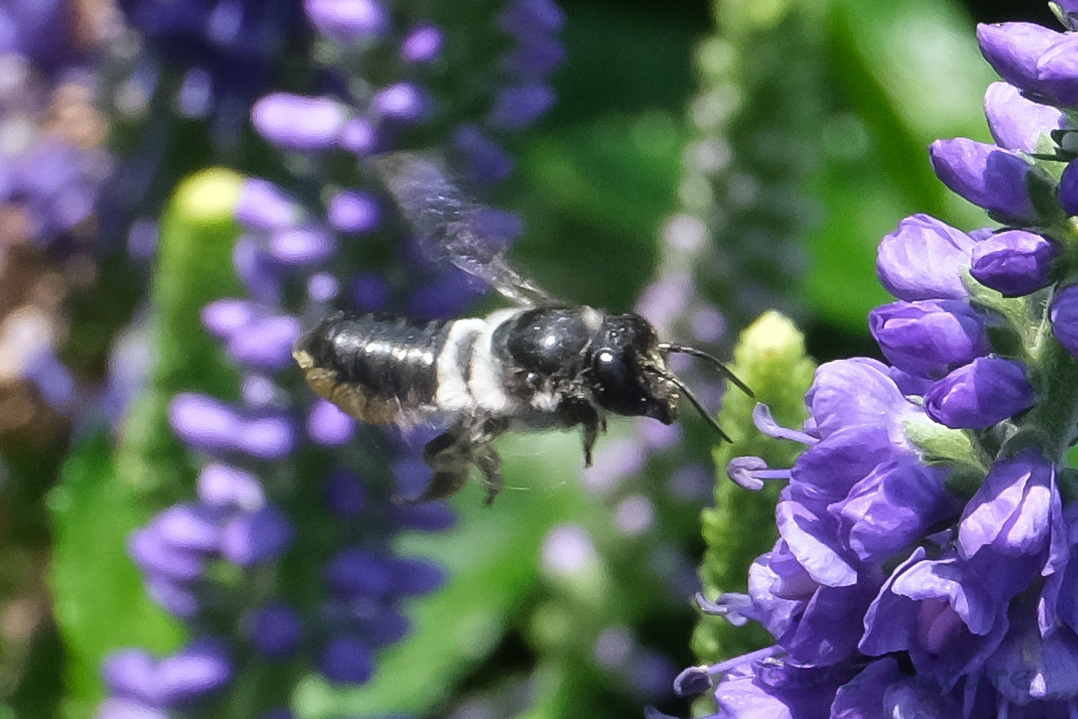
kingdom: Animalia
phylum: Arthropoda
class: Insecta
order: Hymenoptera
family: Megachilidae
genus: Megachile
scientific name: Megachile conjuncta
